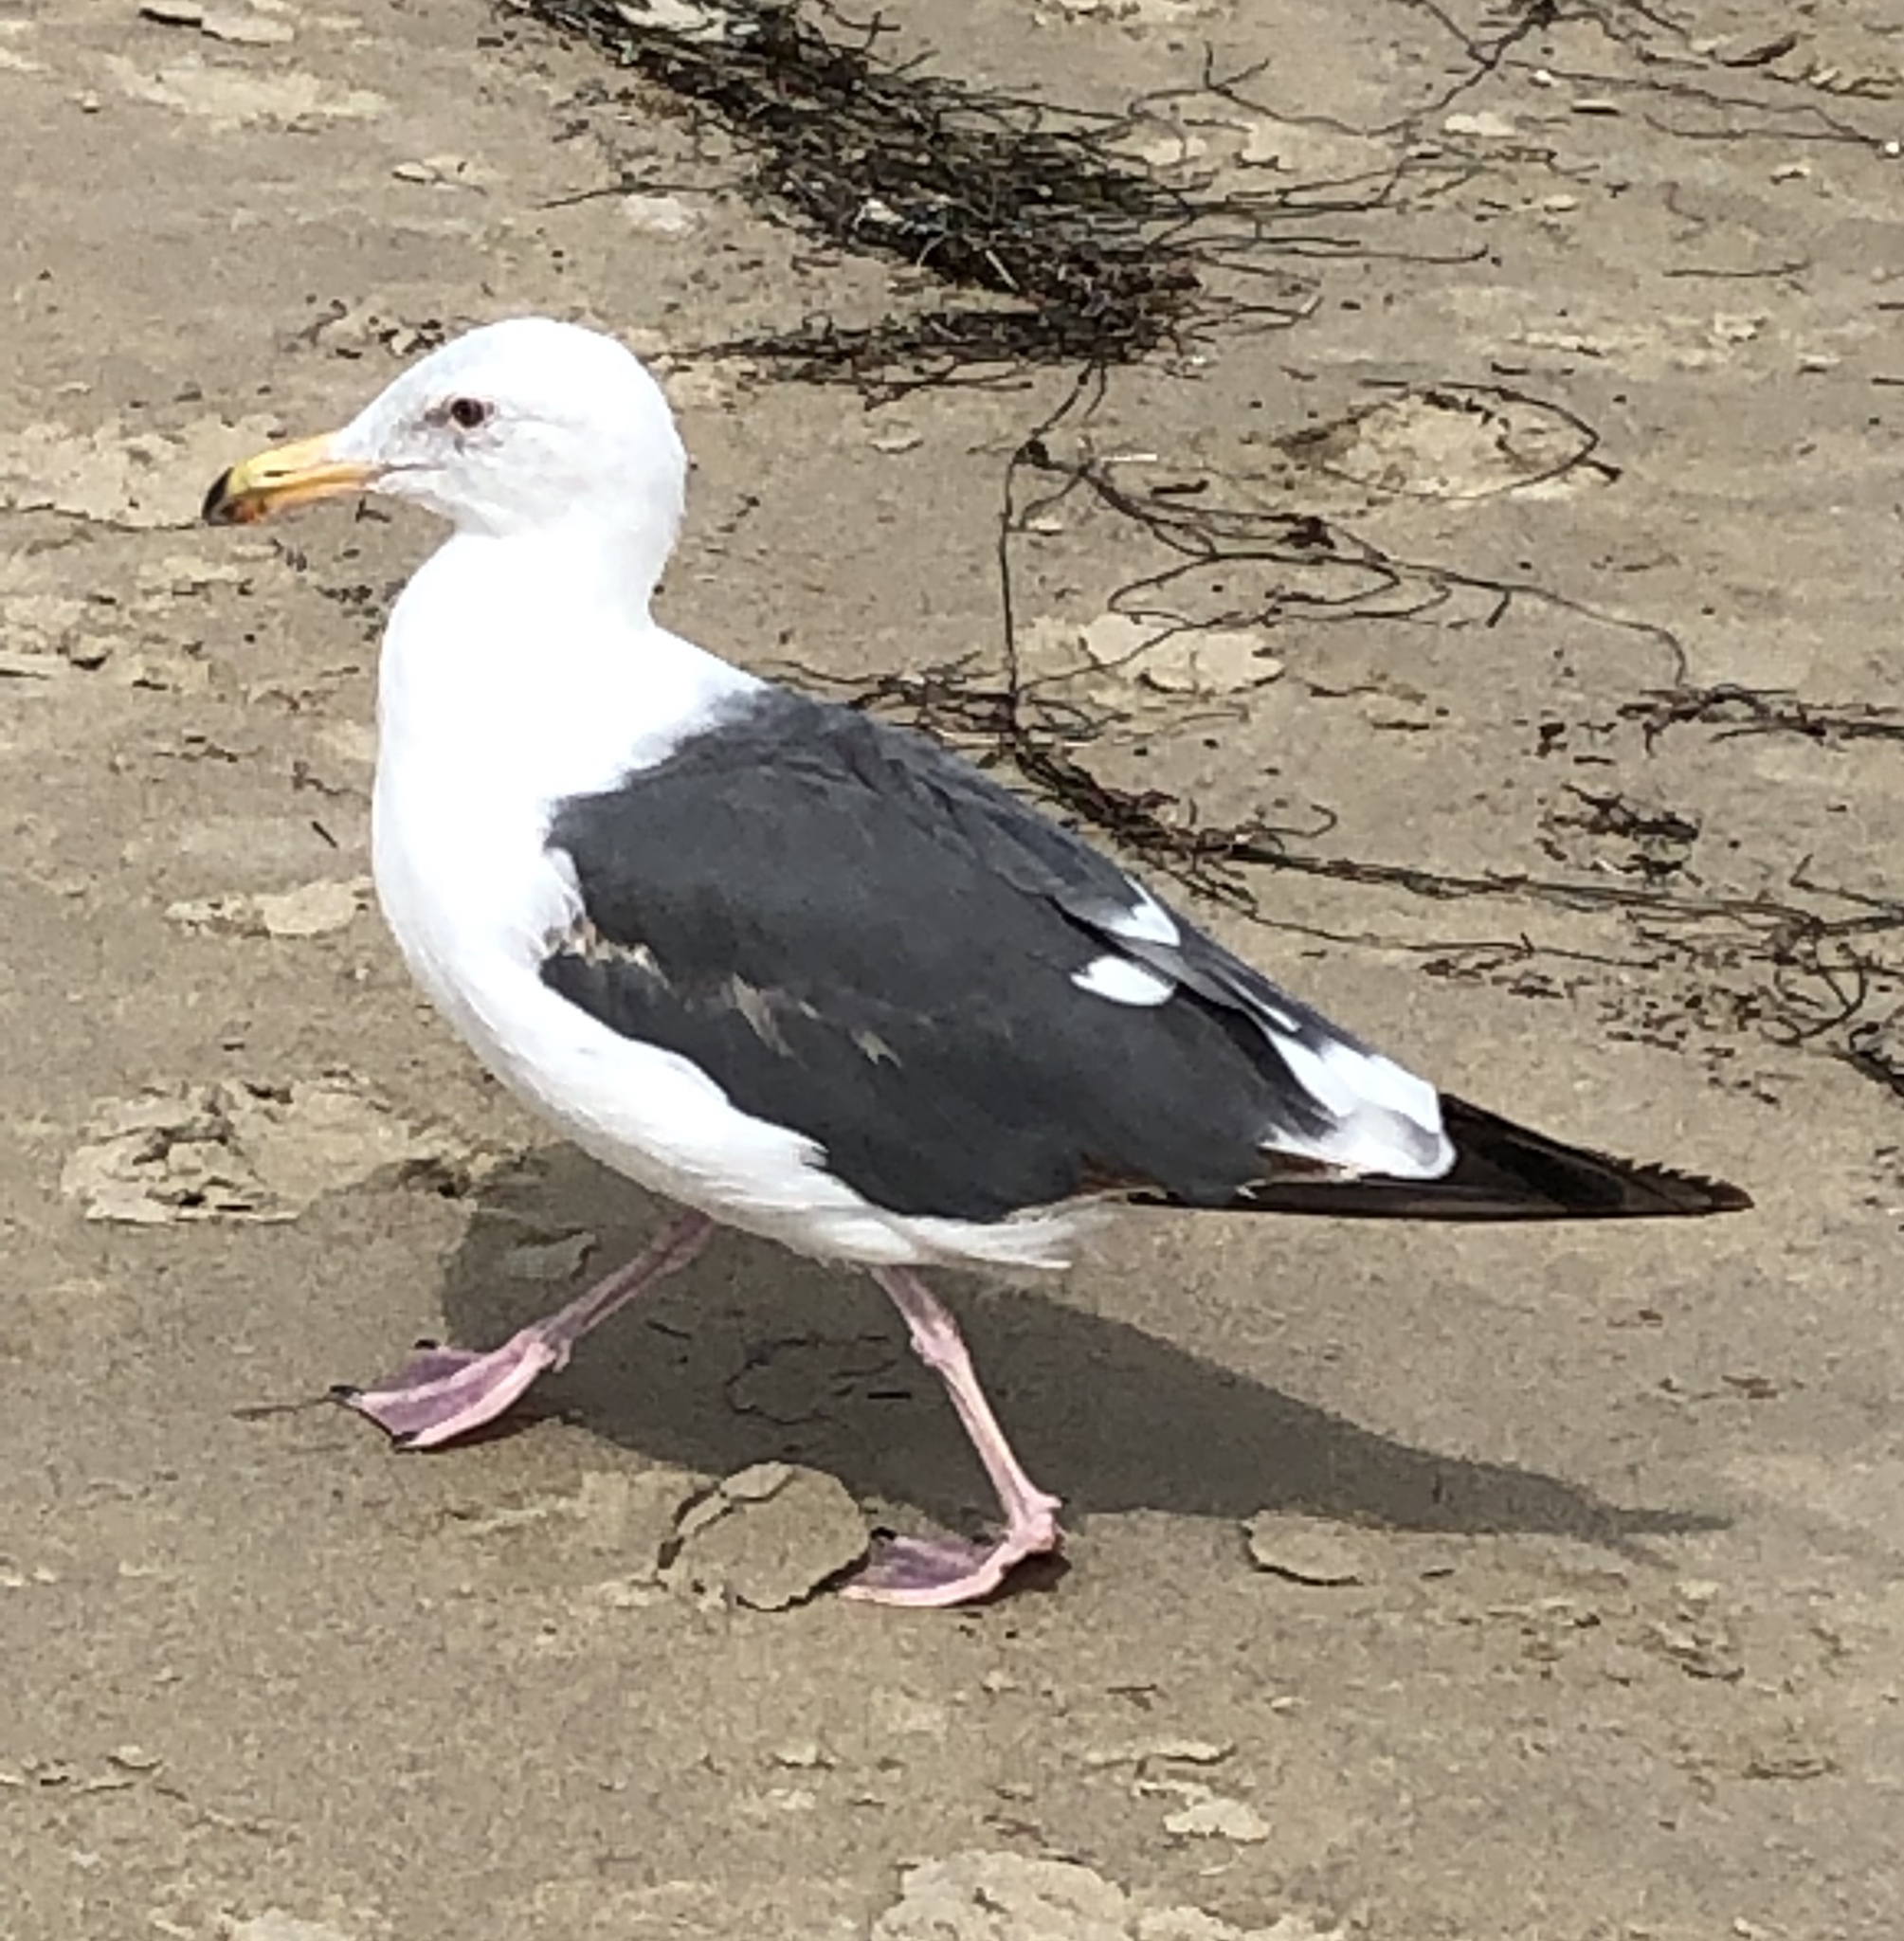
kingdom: Animalia
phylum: Chordata
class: Aves
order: Charadriiformes
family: Laridae
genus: Larus
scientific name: Larus occidentalis
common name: Western gull
